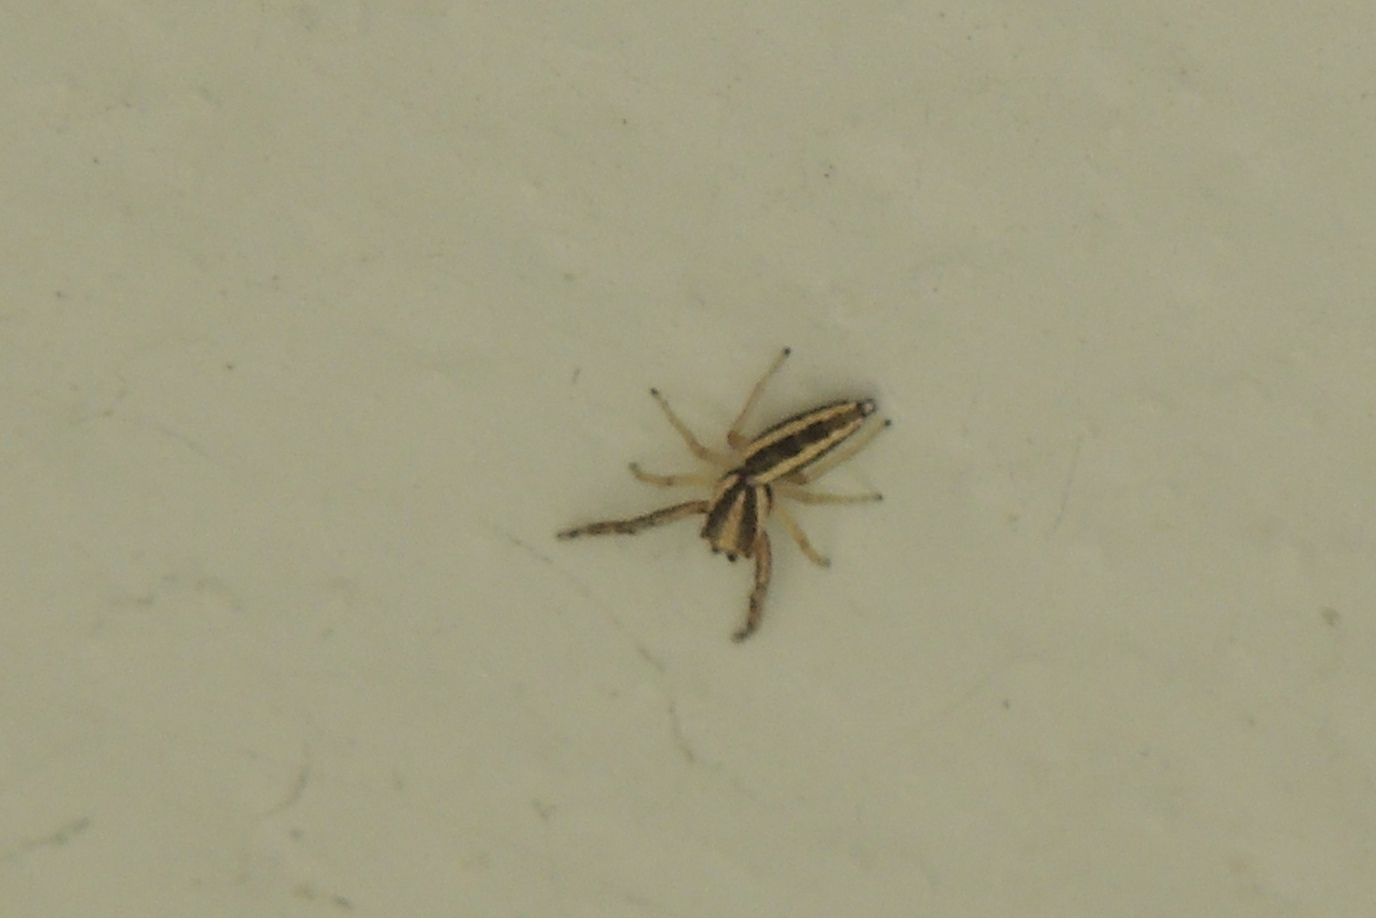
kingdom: Animalia
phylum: Arthropoda
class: Arachnida
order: Araneae
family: Salticidae
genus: Hentzia
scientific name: Hentzia grenada
